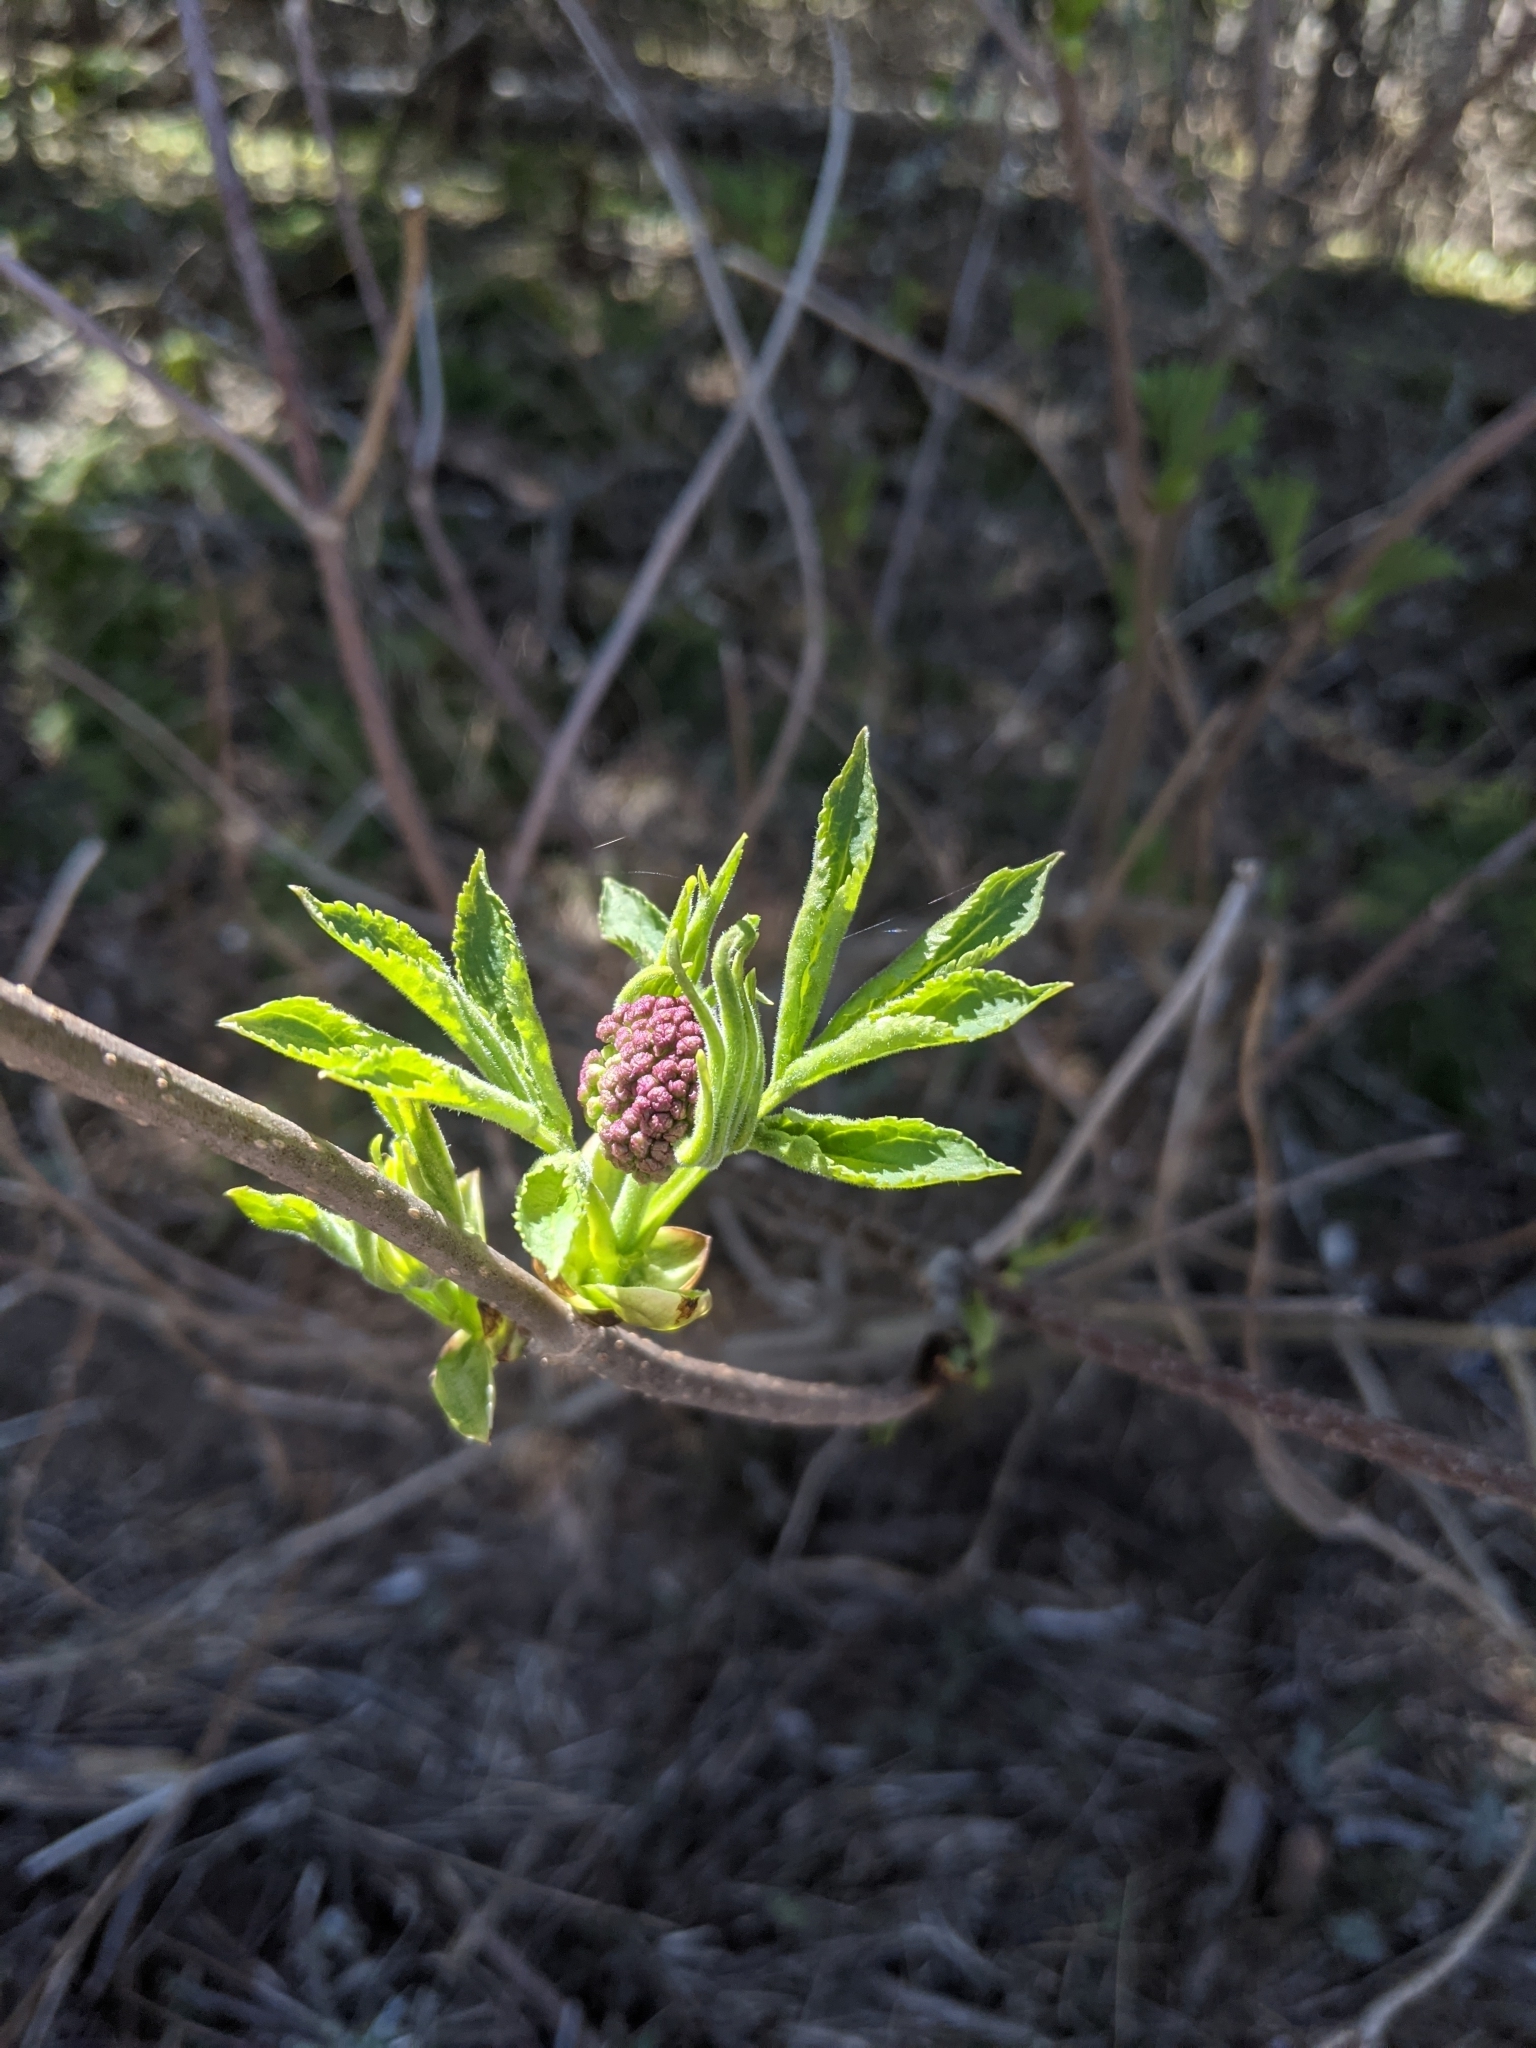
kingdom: Plantae
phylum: Tracheophyta
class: Magnoliopsida
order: Dipsacales
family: Viburnaceae
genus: Sambucus
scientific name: Sambucus racemosa
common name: Red-berried elder
